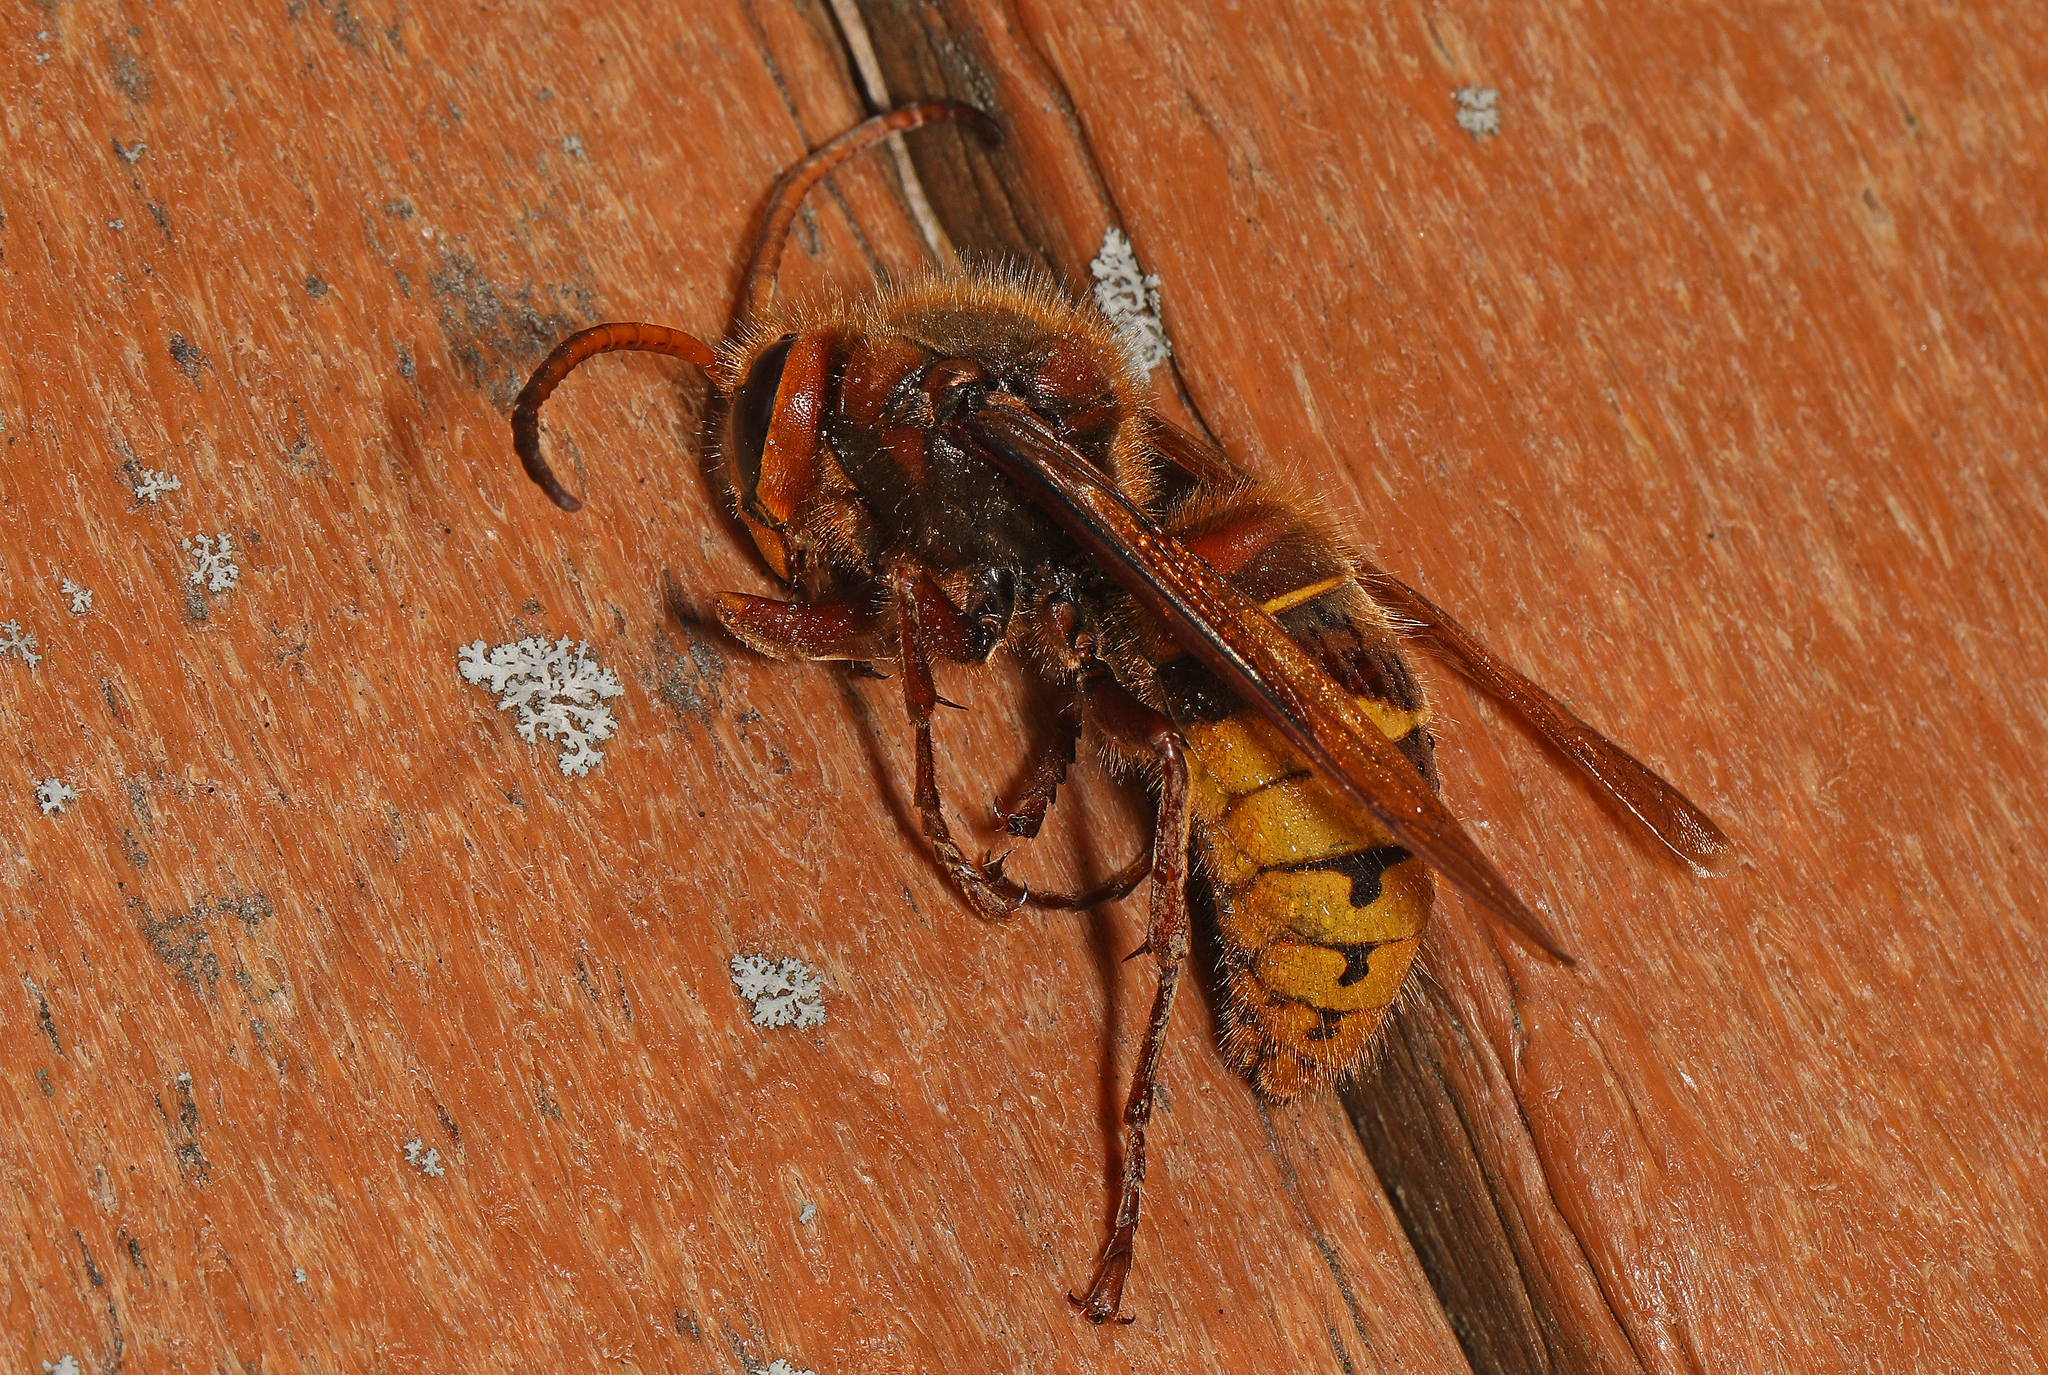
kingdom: Animalia
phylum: Arthropoda
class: Insecta
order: Hymenoptera
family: Vespidae
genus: Vespa
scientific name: Vespa crabro
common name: Hornet
